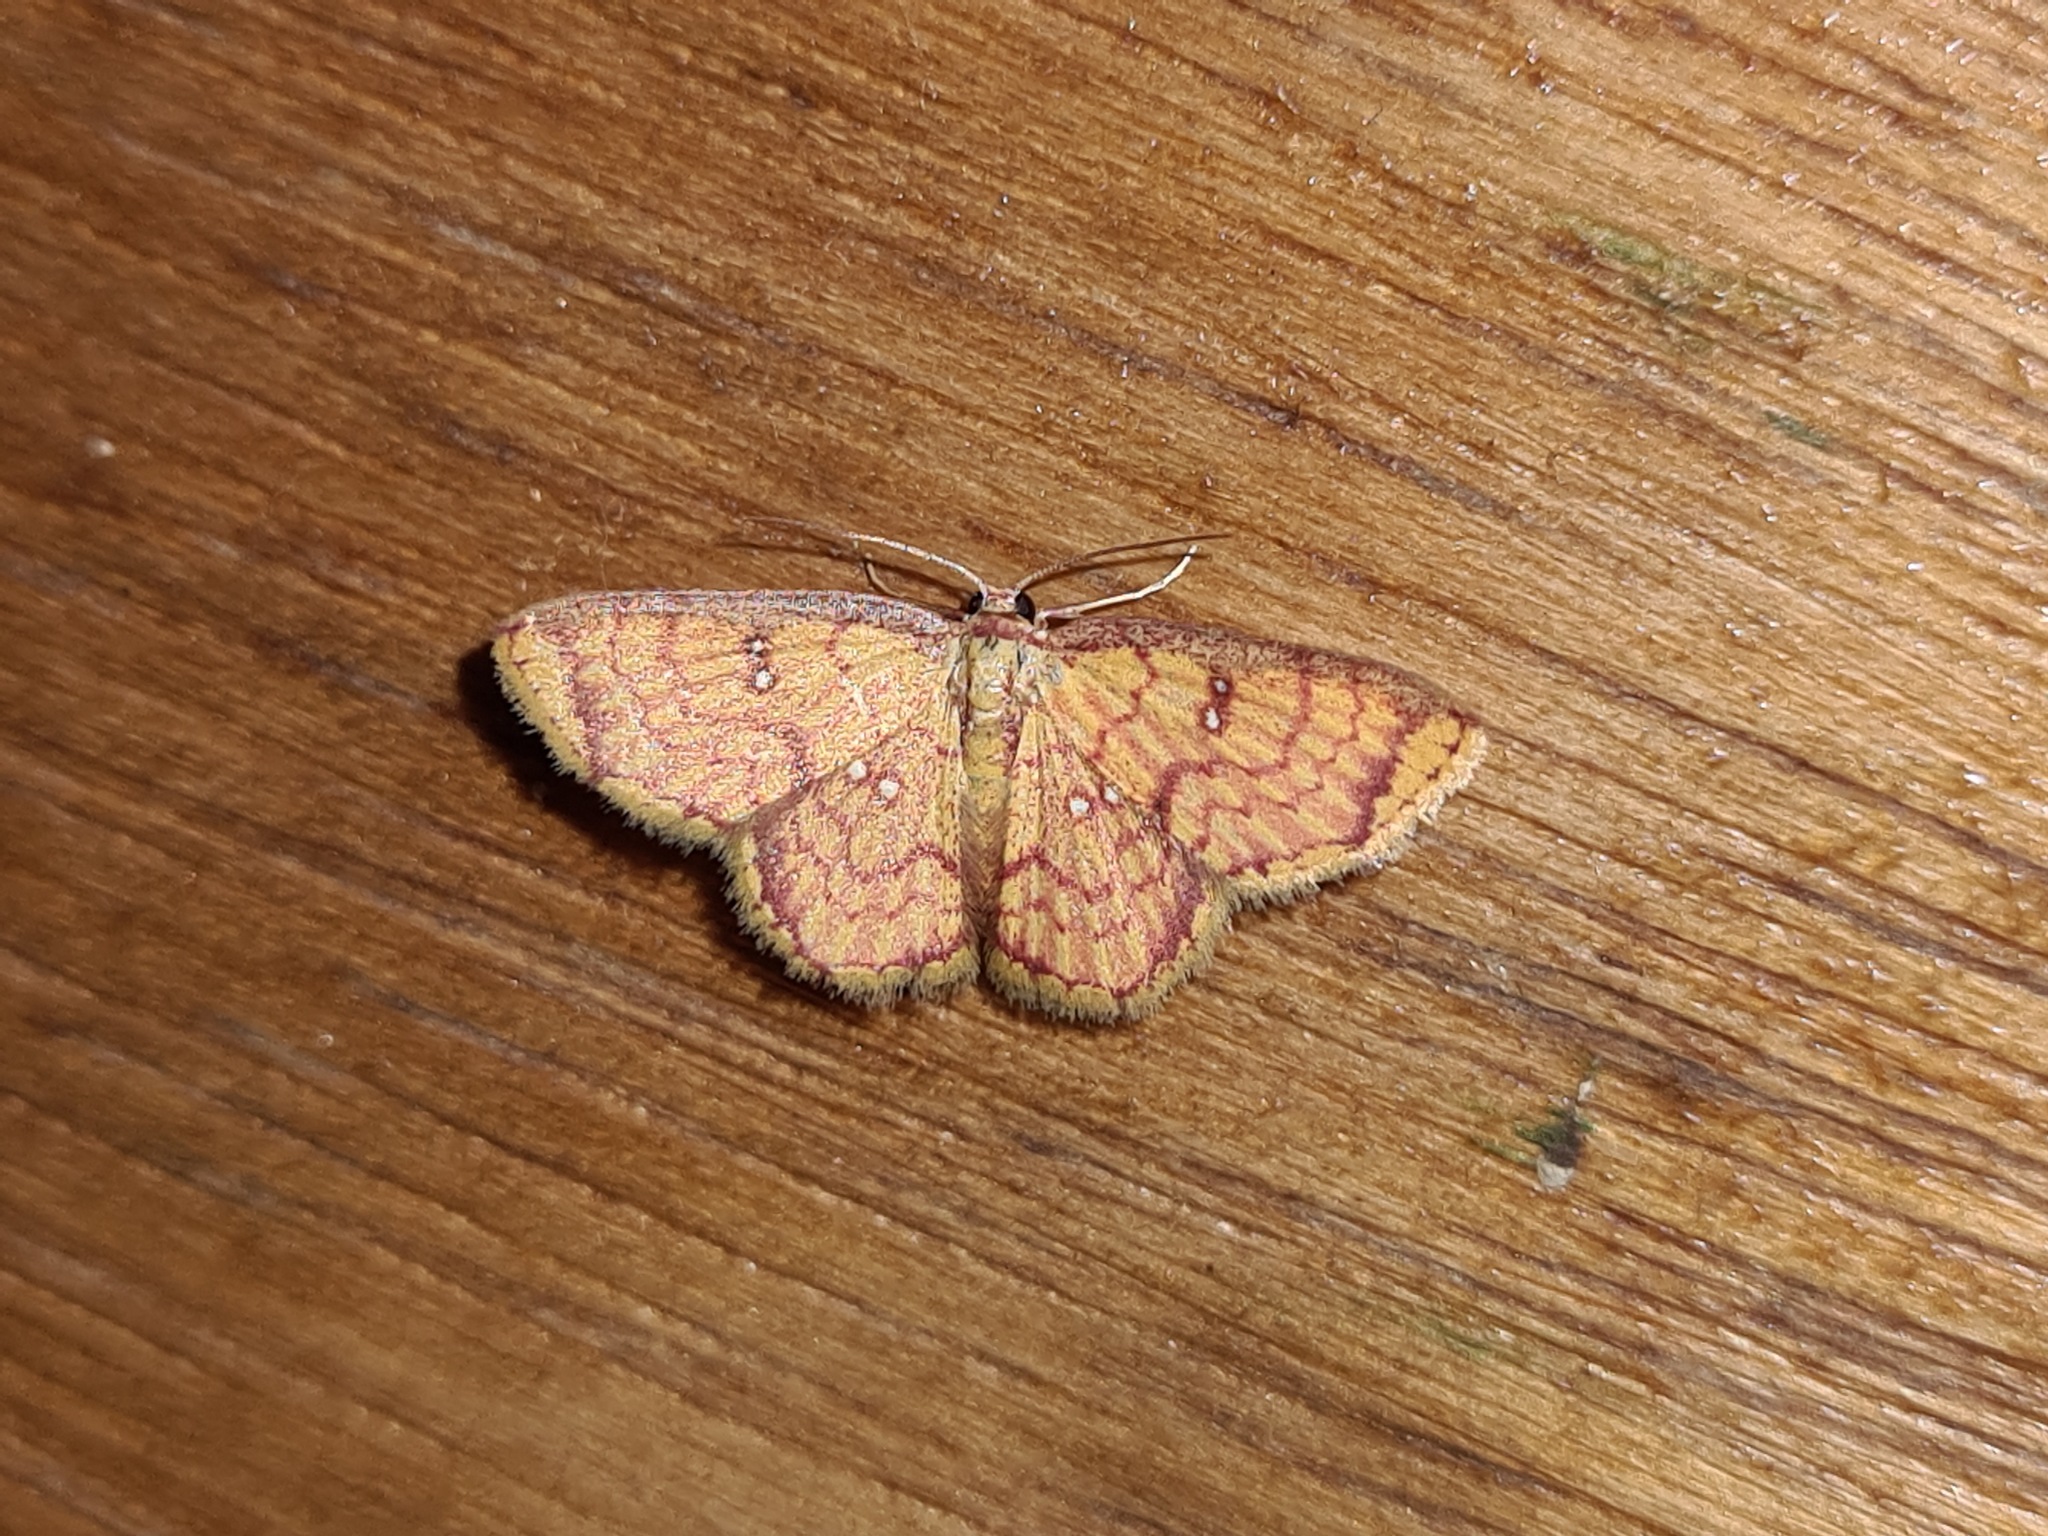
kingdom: Animalia
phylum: Arthropoda
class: Insecta
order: Lepidoptera
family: Geometridae
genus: Tricentra
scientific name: Tricentra gavisata
